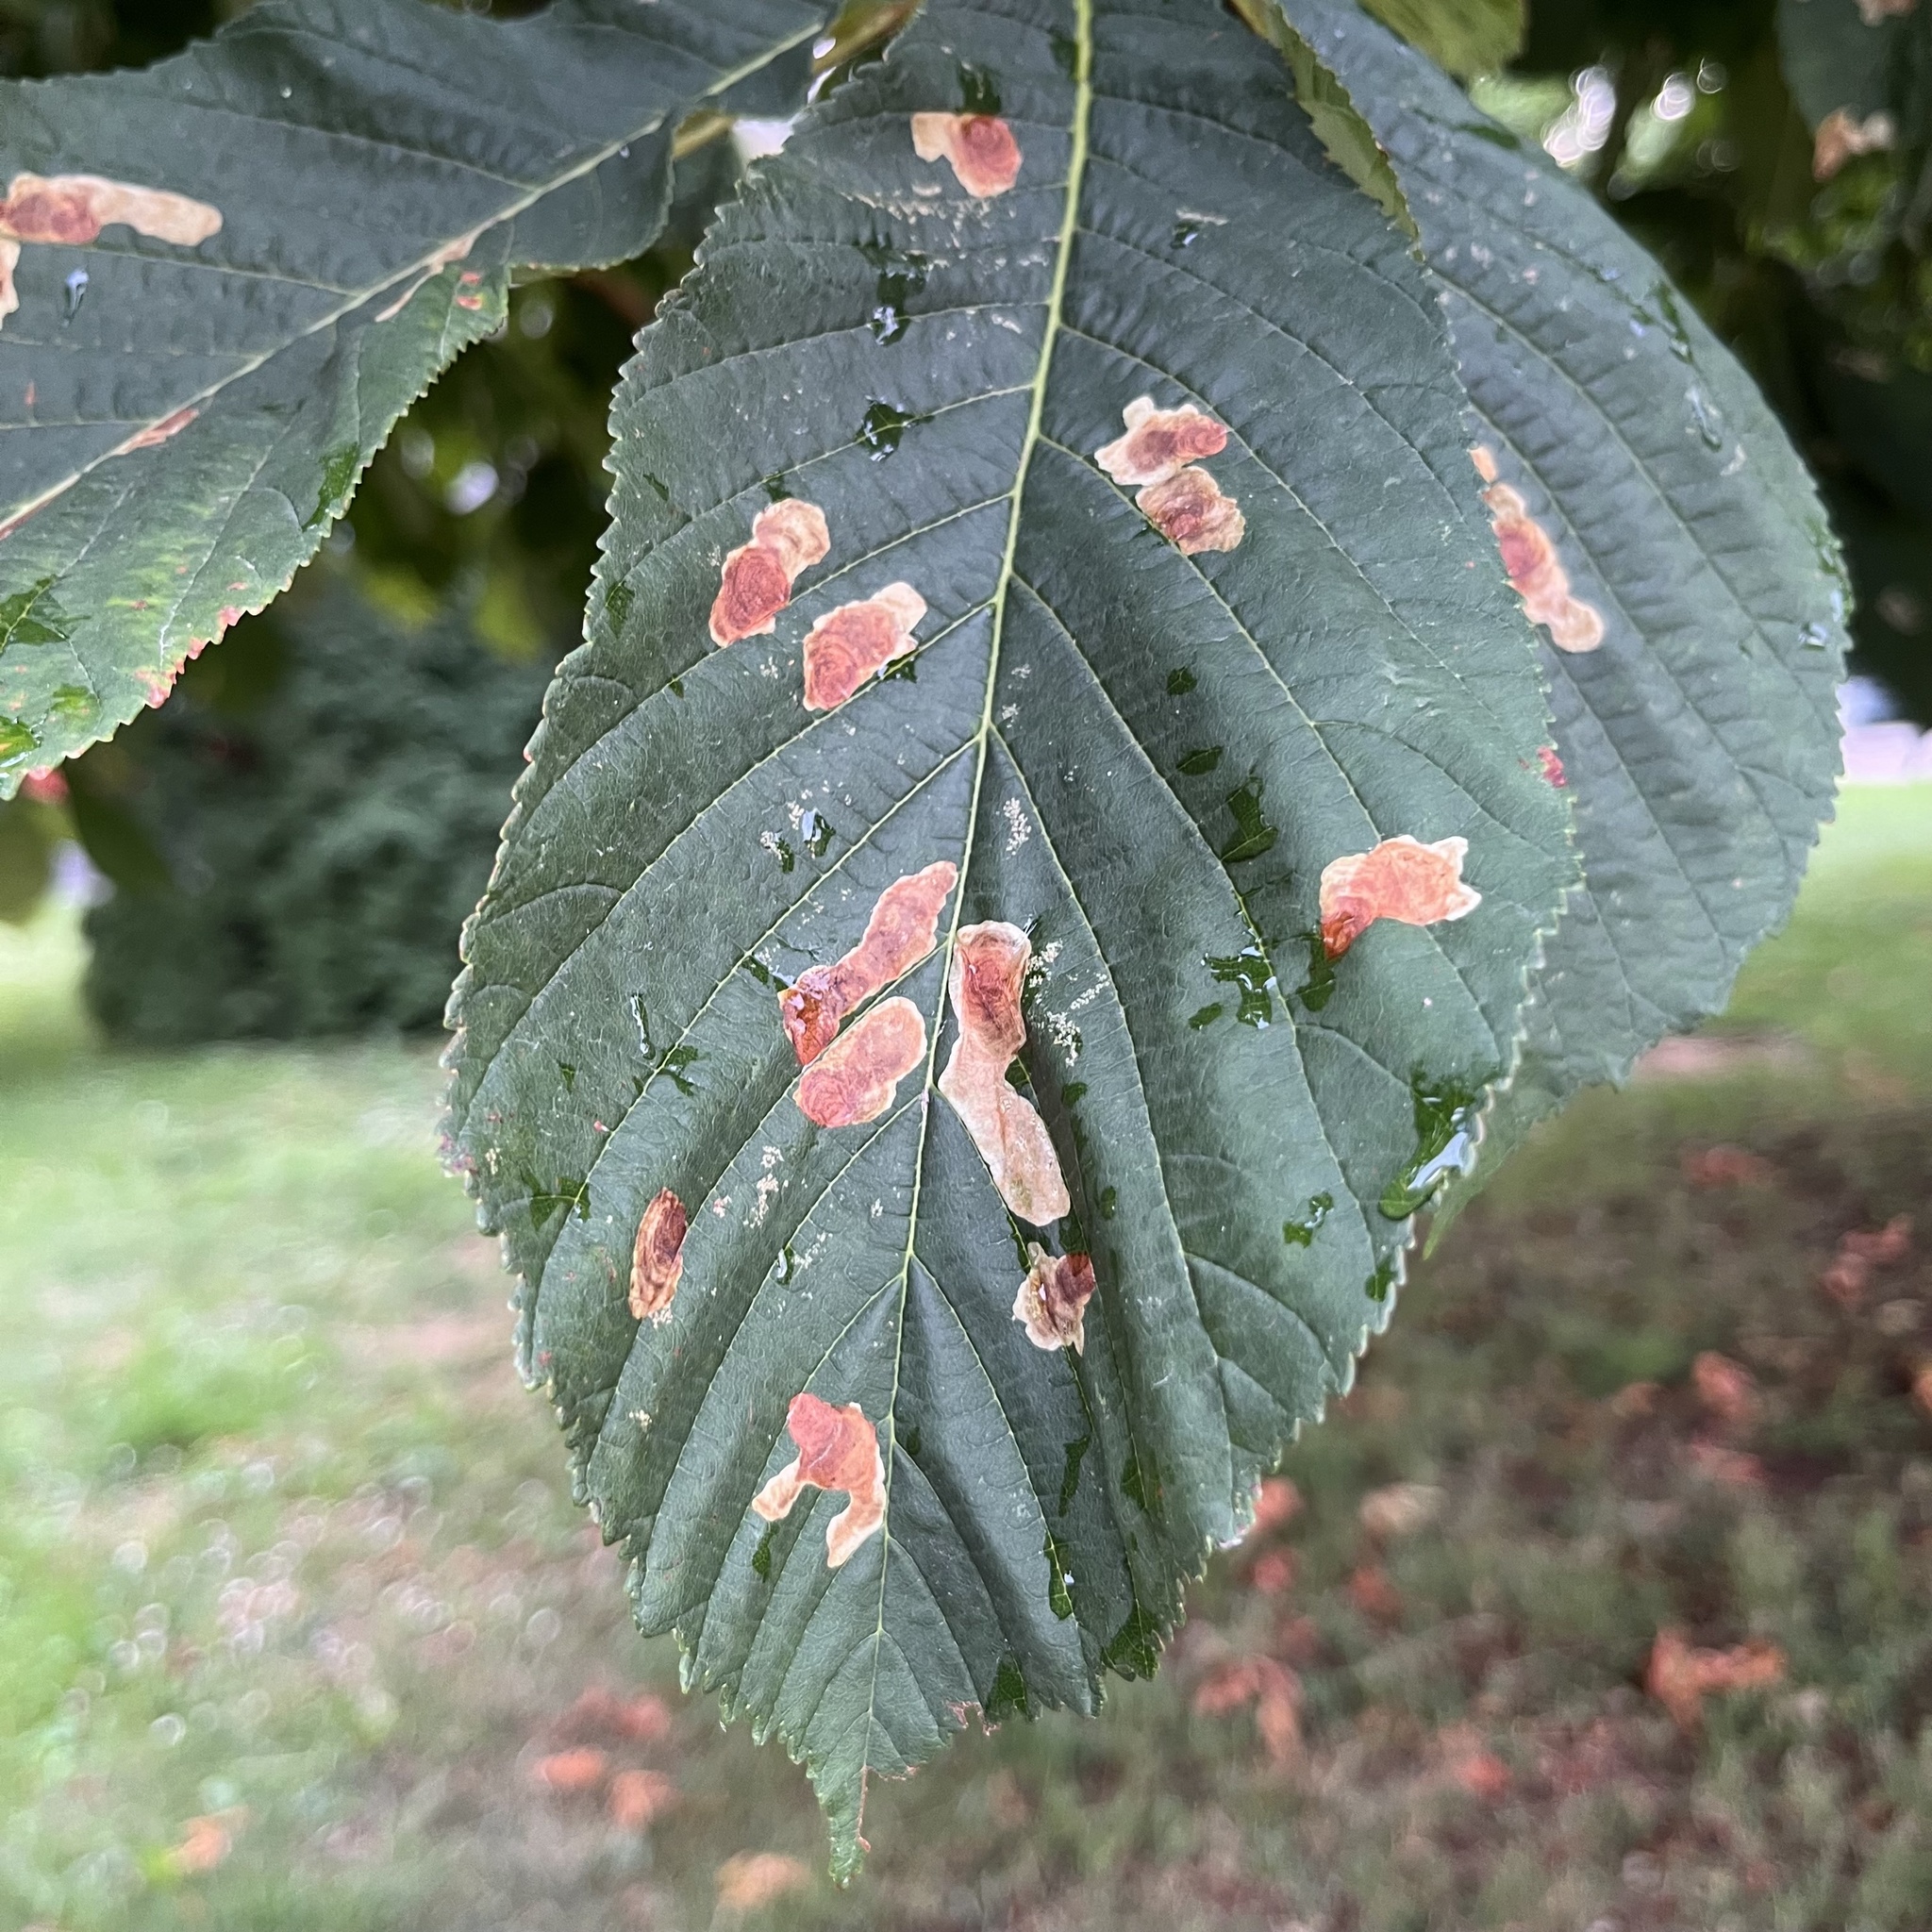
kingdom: Animalia
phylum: Arthropoda
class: Insecta
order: Lepidoptera
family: Gracillariidae
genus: Cameraria
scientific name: Cameraria ohridella
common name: Horse-chestnut leaf-miner
